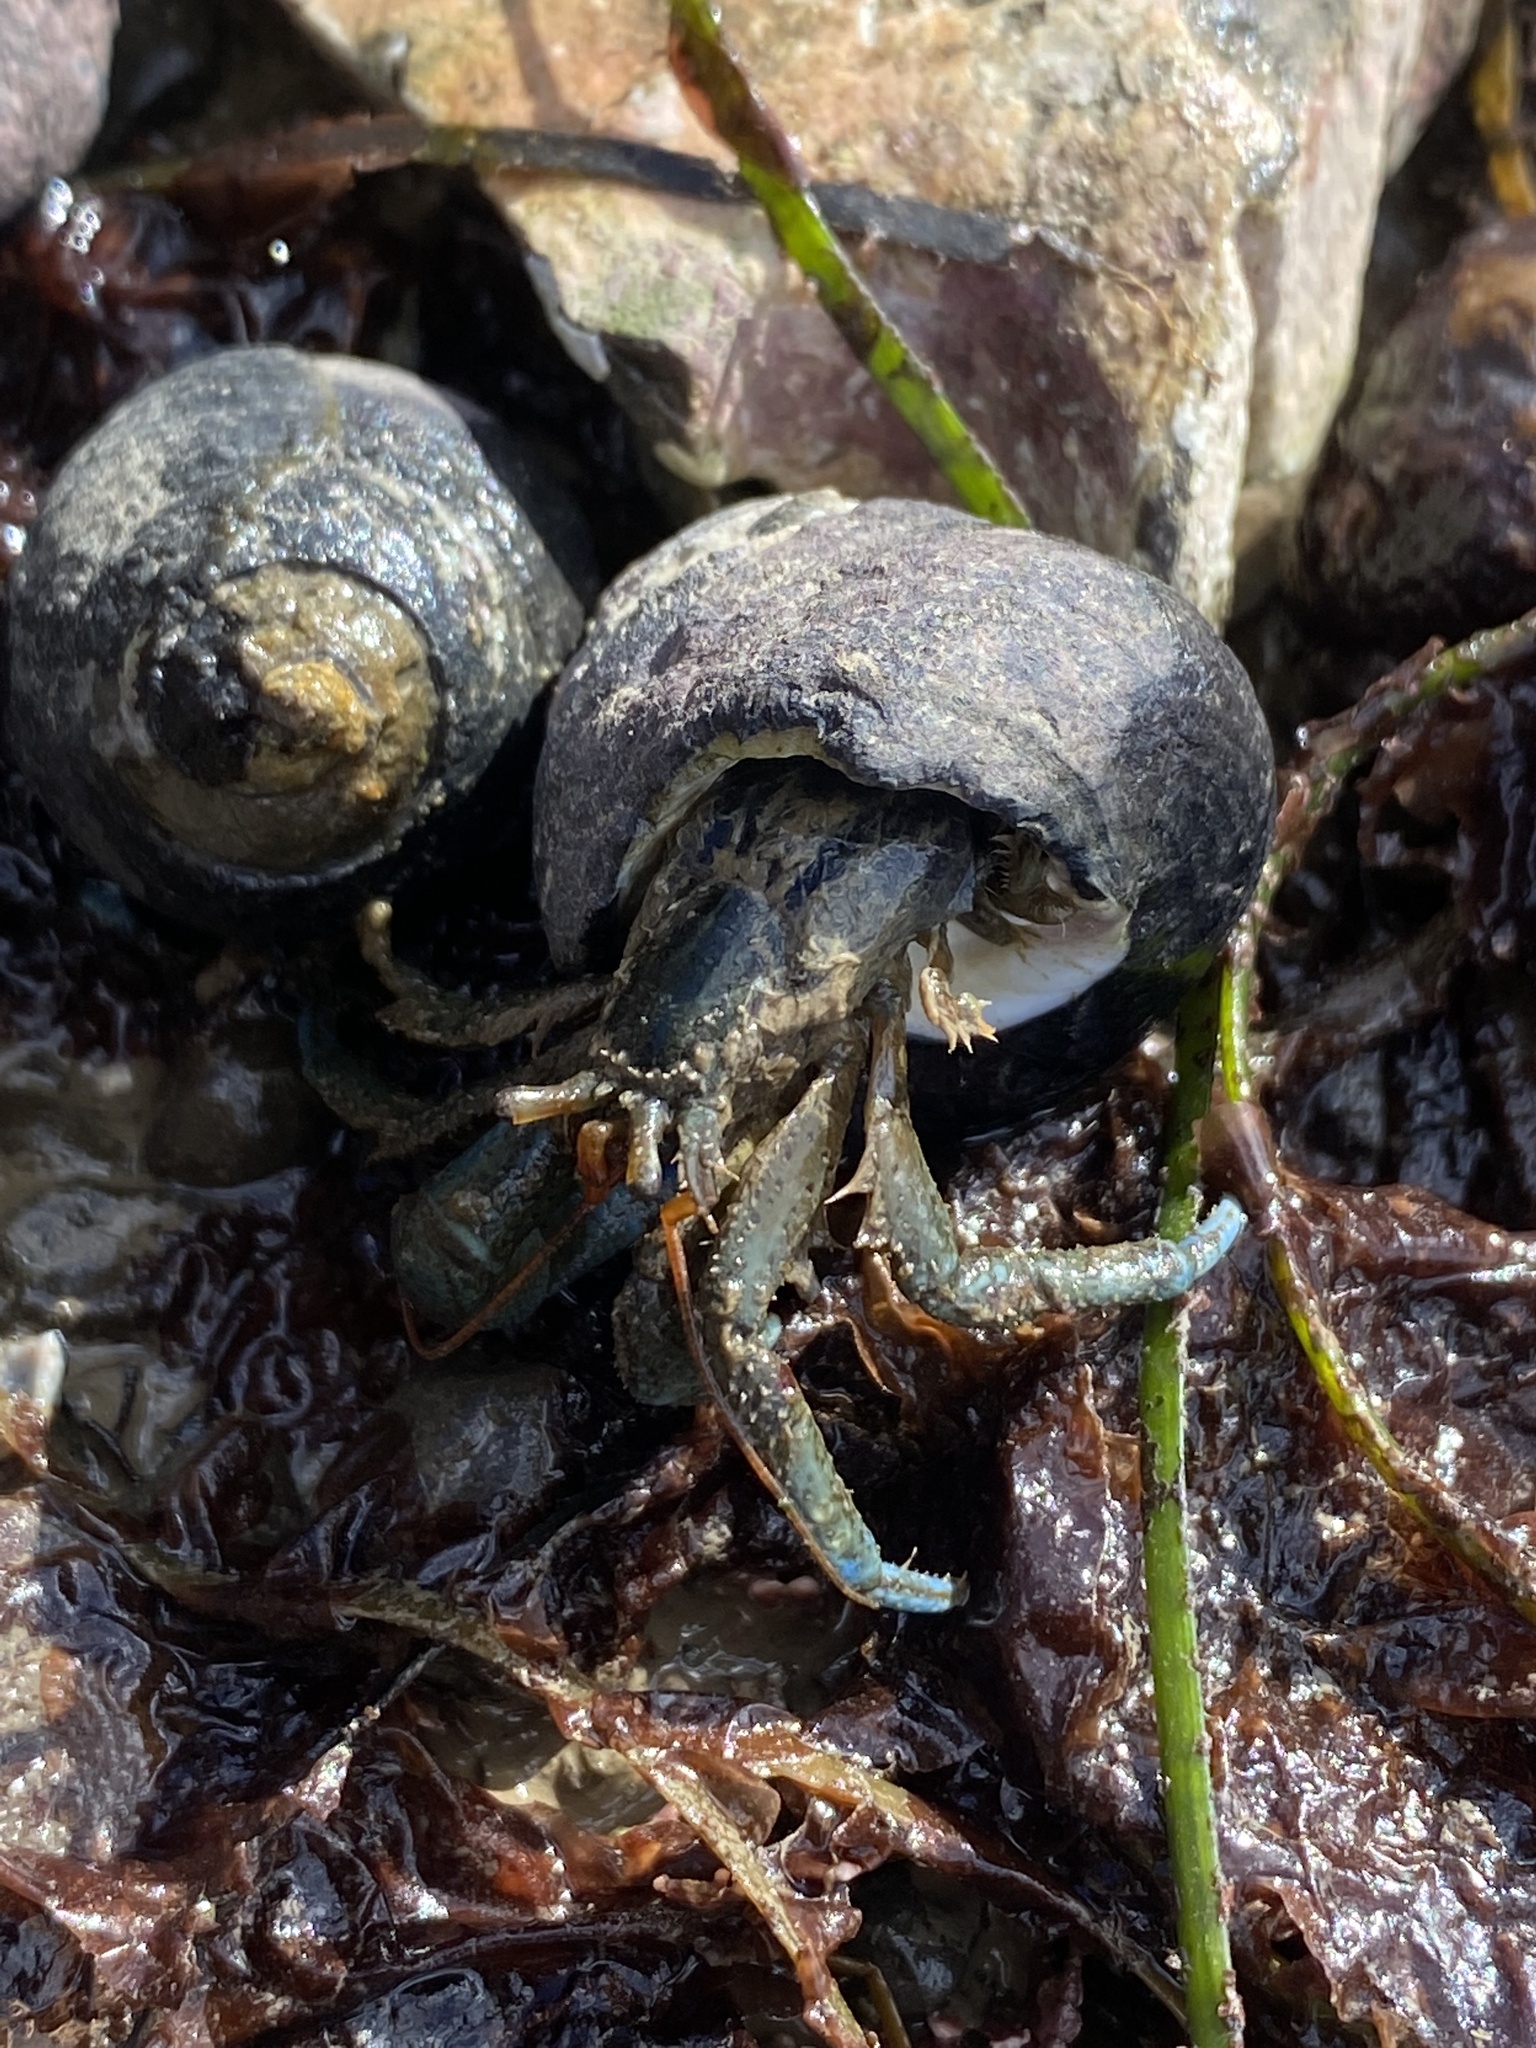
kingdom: Animalia
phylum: Arthropoda
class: Malacostraca
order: Decapoda
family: Paguridae
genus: Pagurus
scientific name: Pagurus samuelis
